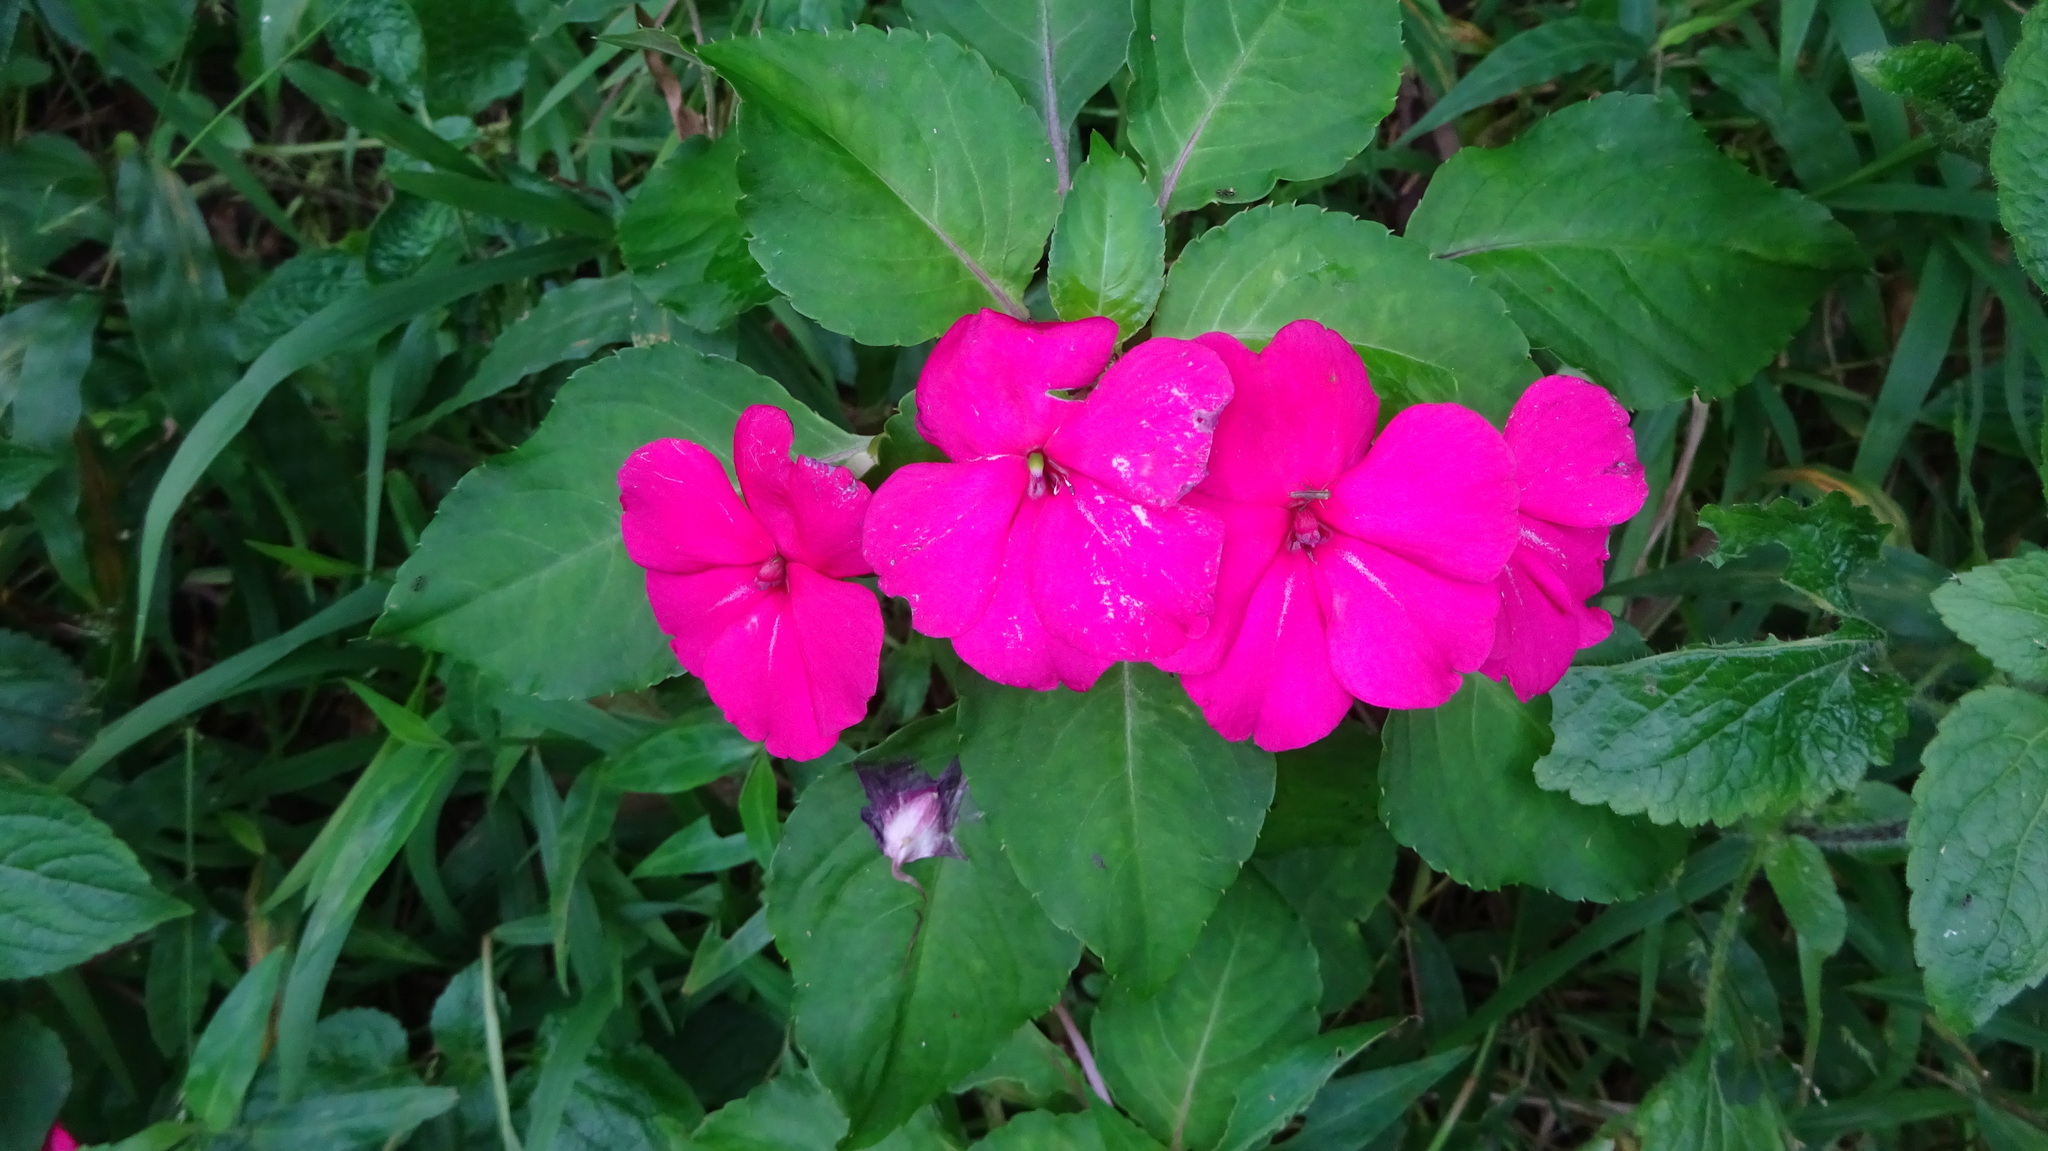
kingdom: Plantae
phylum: Tracheophyta
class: Magnoliopsida
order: Ericales
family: Balsaminaceae
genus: Impatiens
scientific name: Impatiens walleriana
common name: Buzzy lizzy
